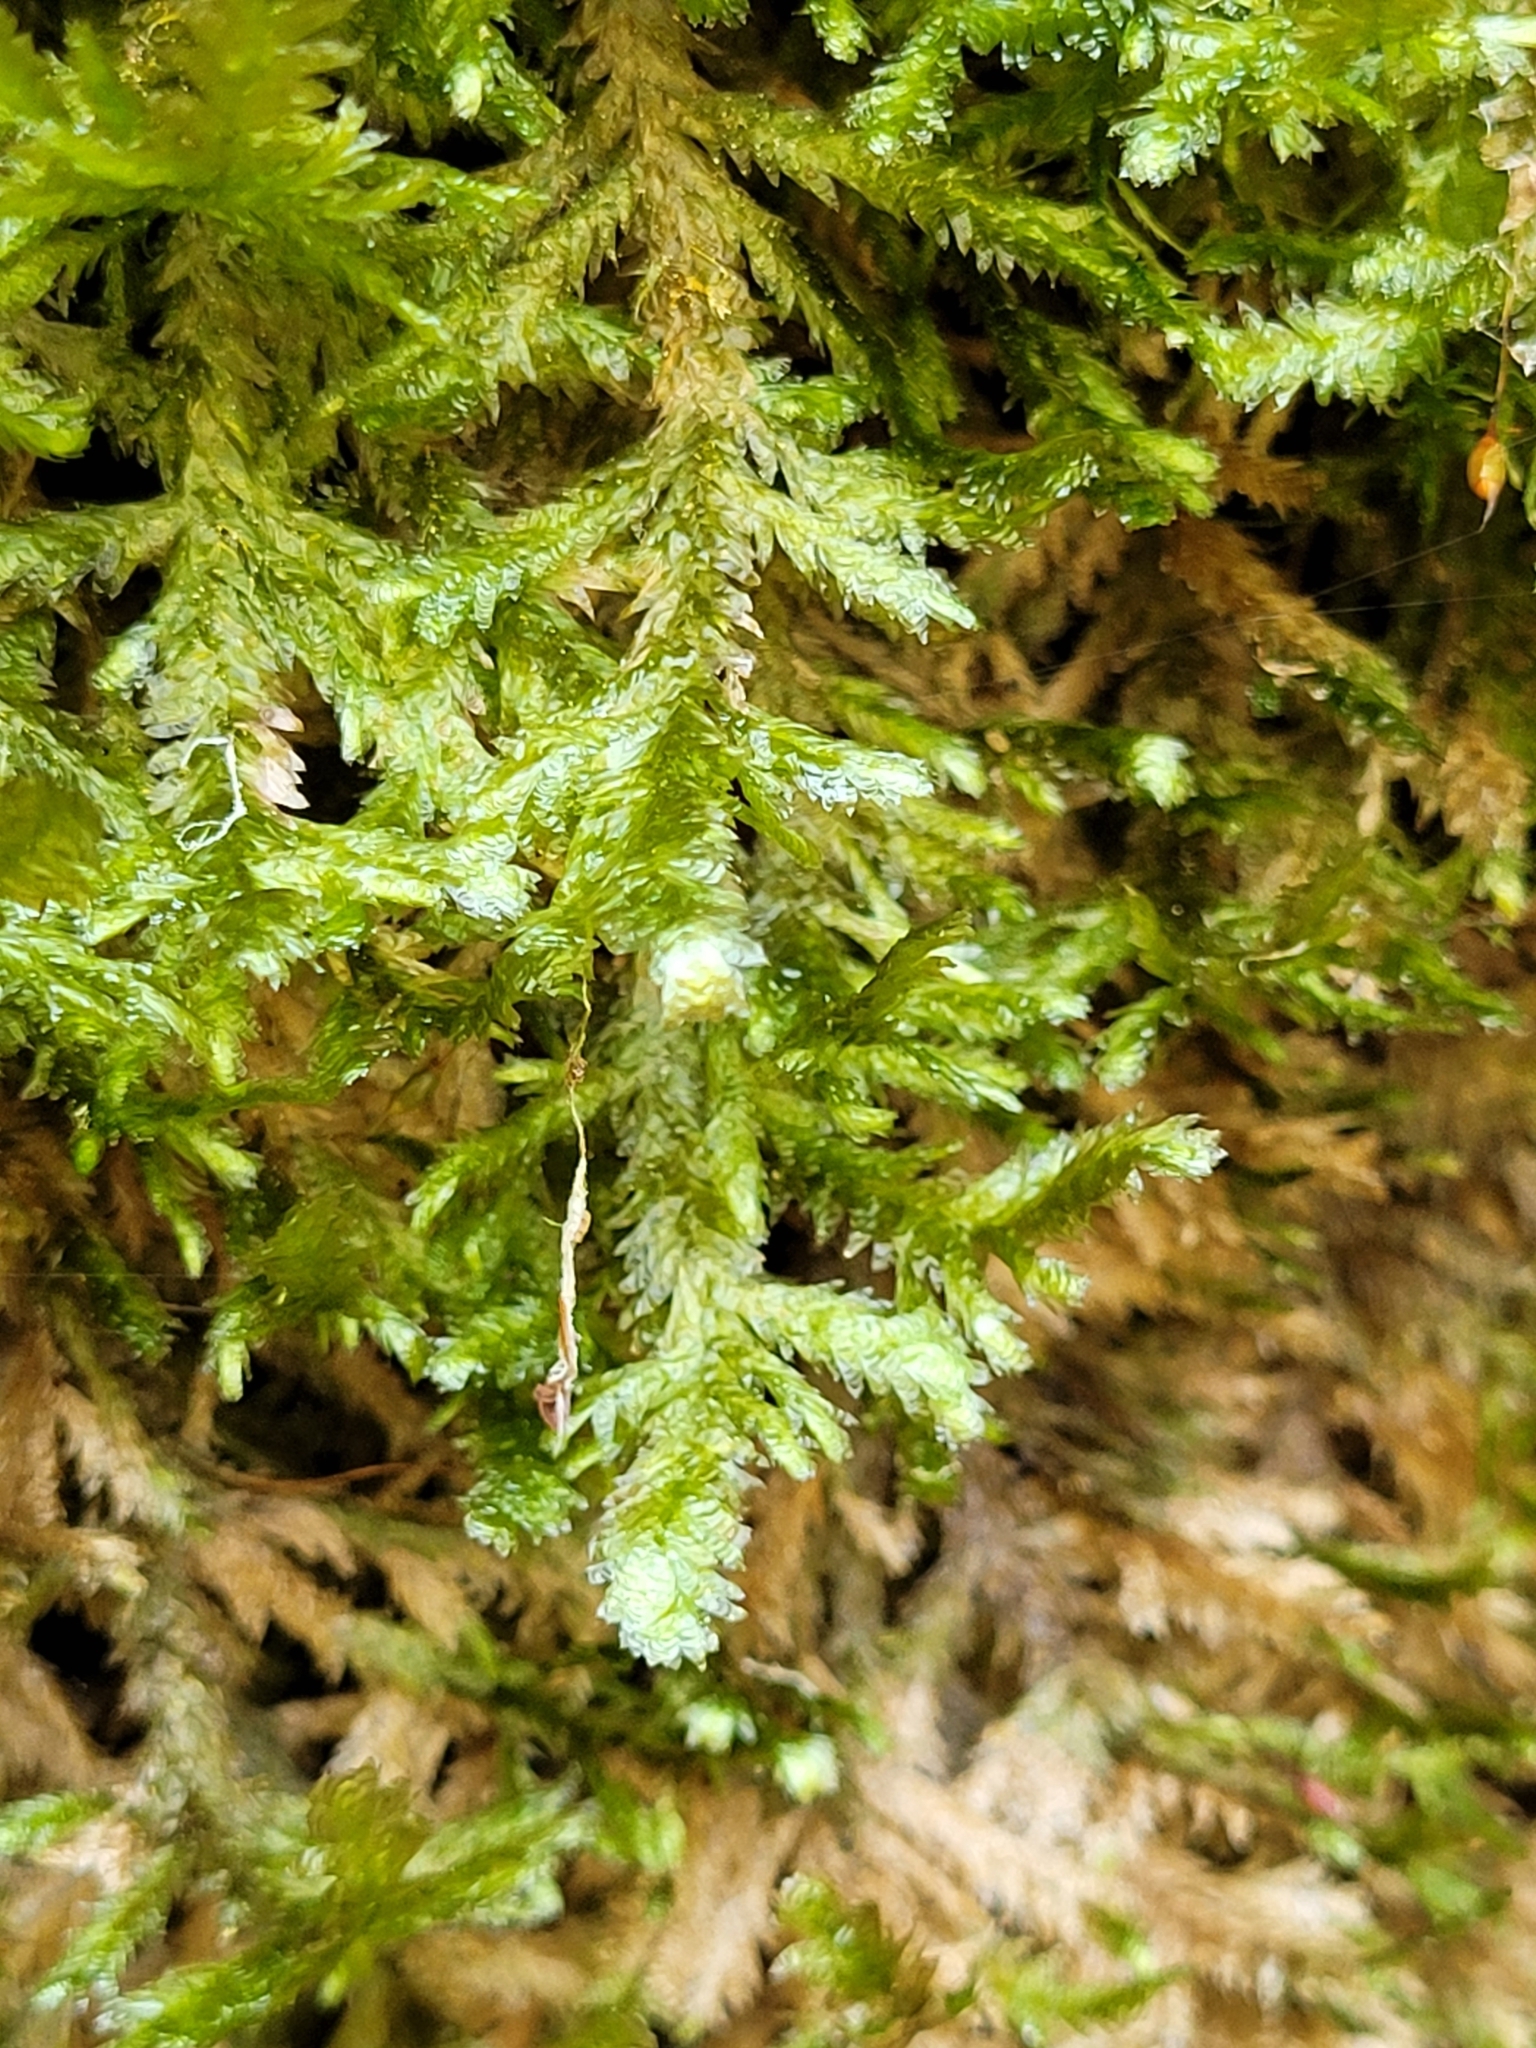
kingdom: Plantae
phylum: Bryophyta
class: Bryopsida
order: Hypnales
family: Neckeraceae
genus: Exsertotheca
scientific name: Exsertotheca crispa
